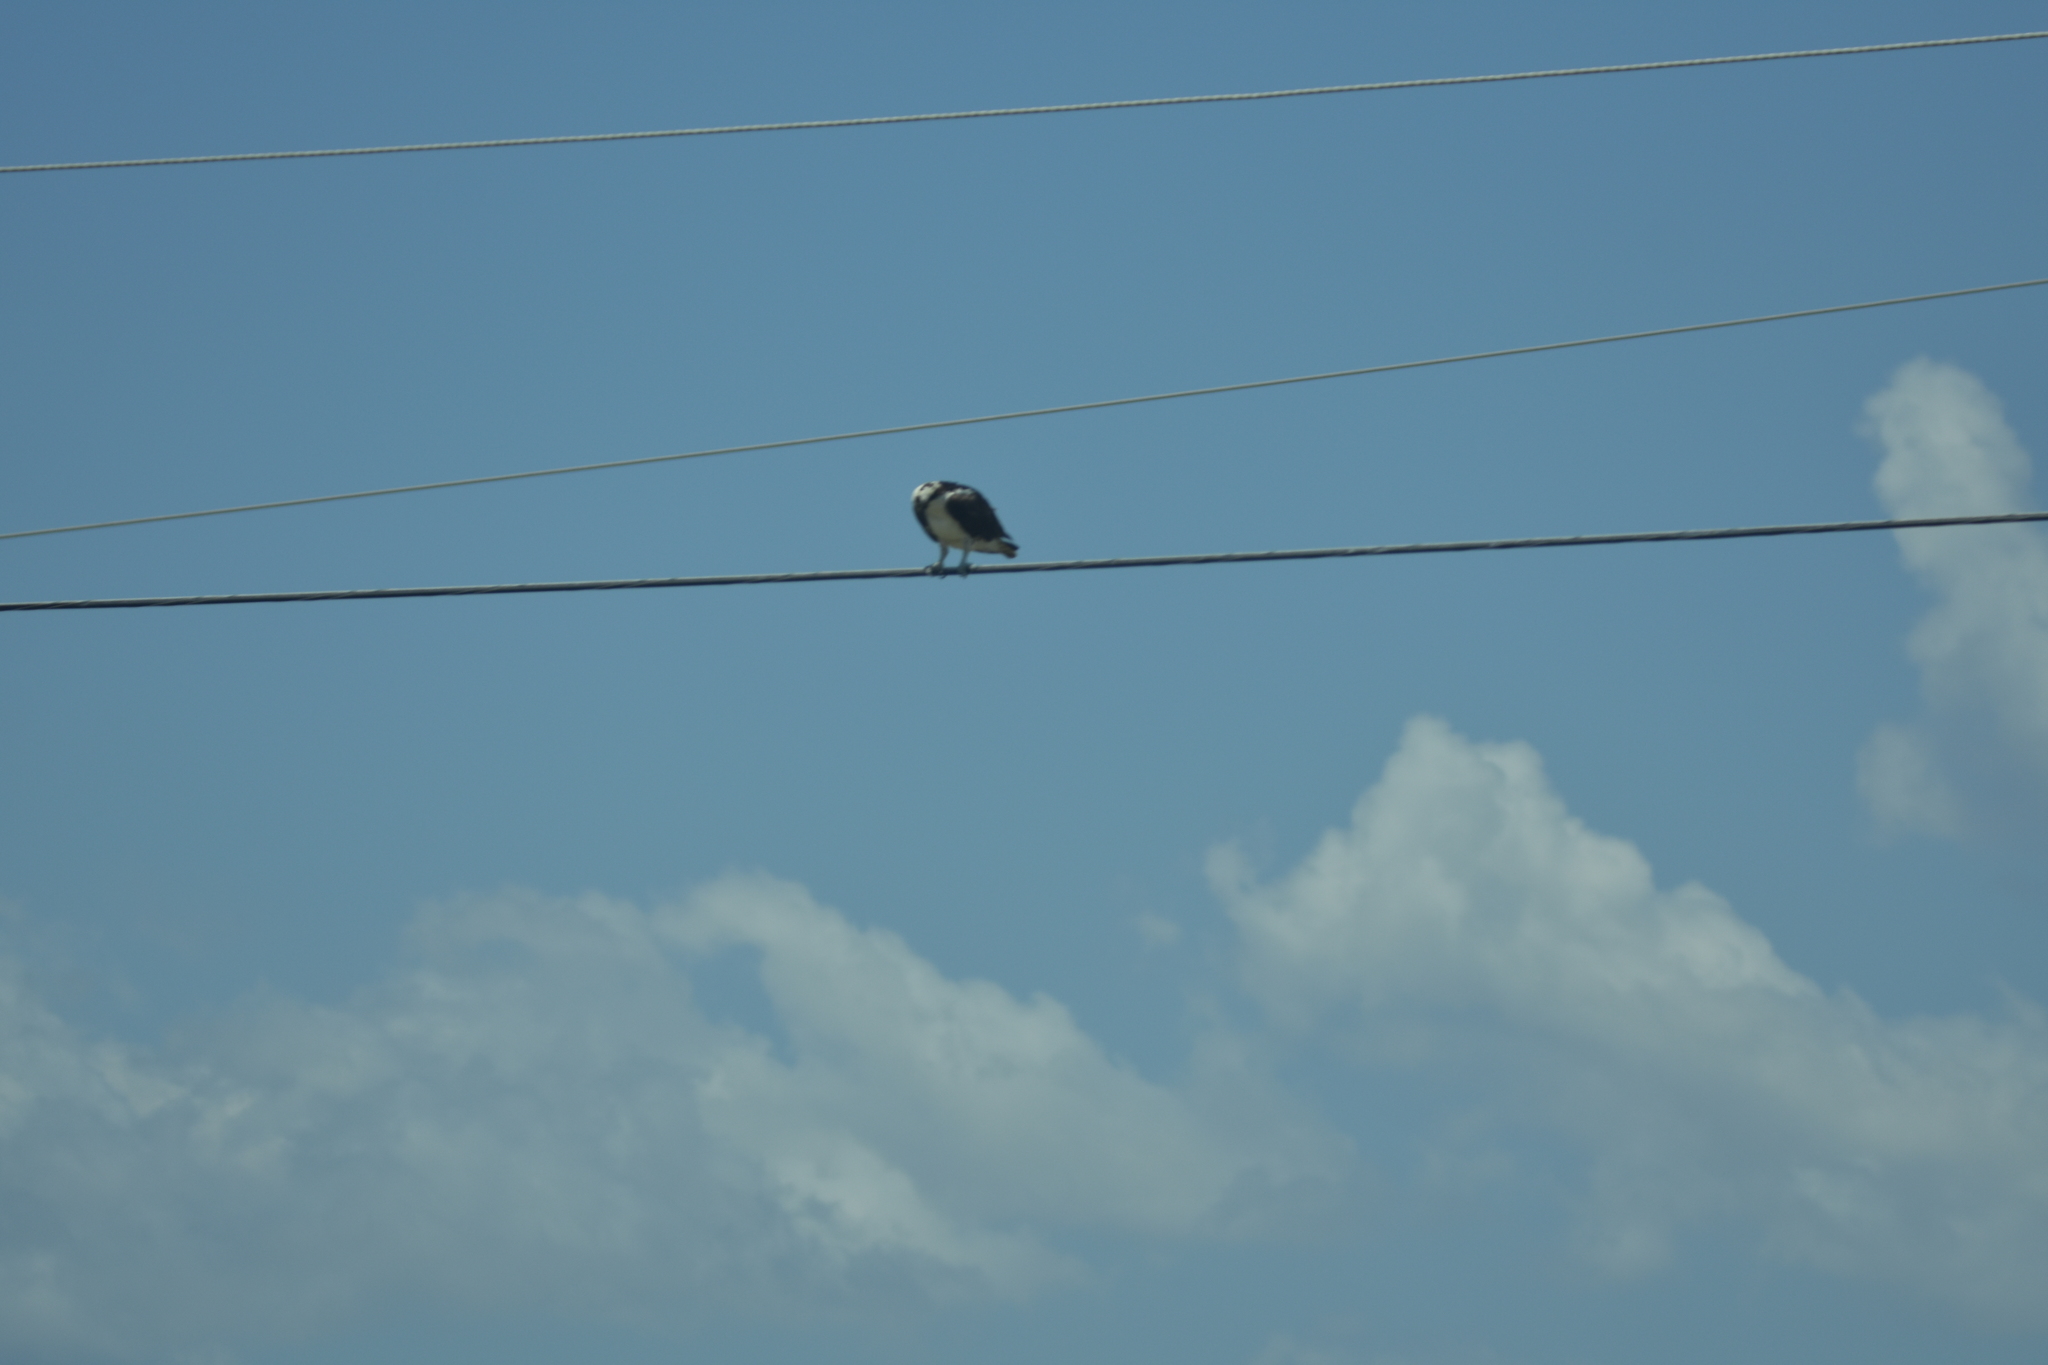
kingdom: Animalia
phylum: Chordata
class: Aves
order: Accipitriformes
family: Pandionidae
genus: Pandion
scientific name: Pandion haliaetus
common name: Osprey
